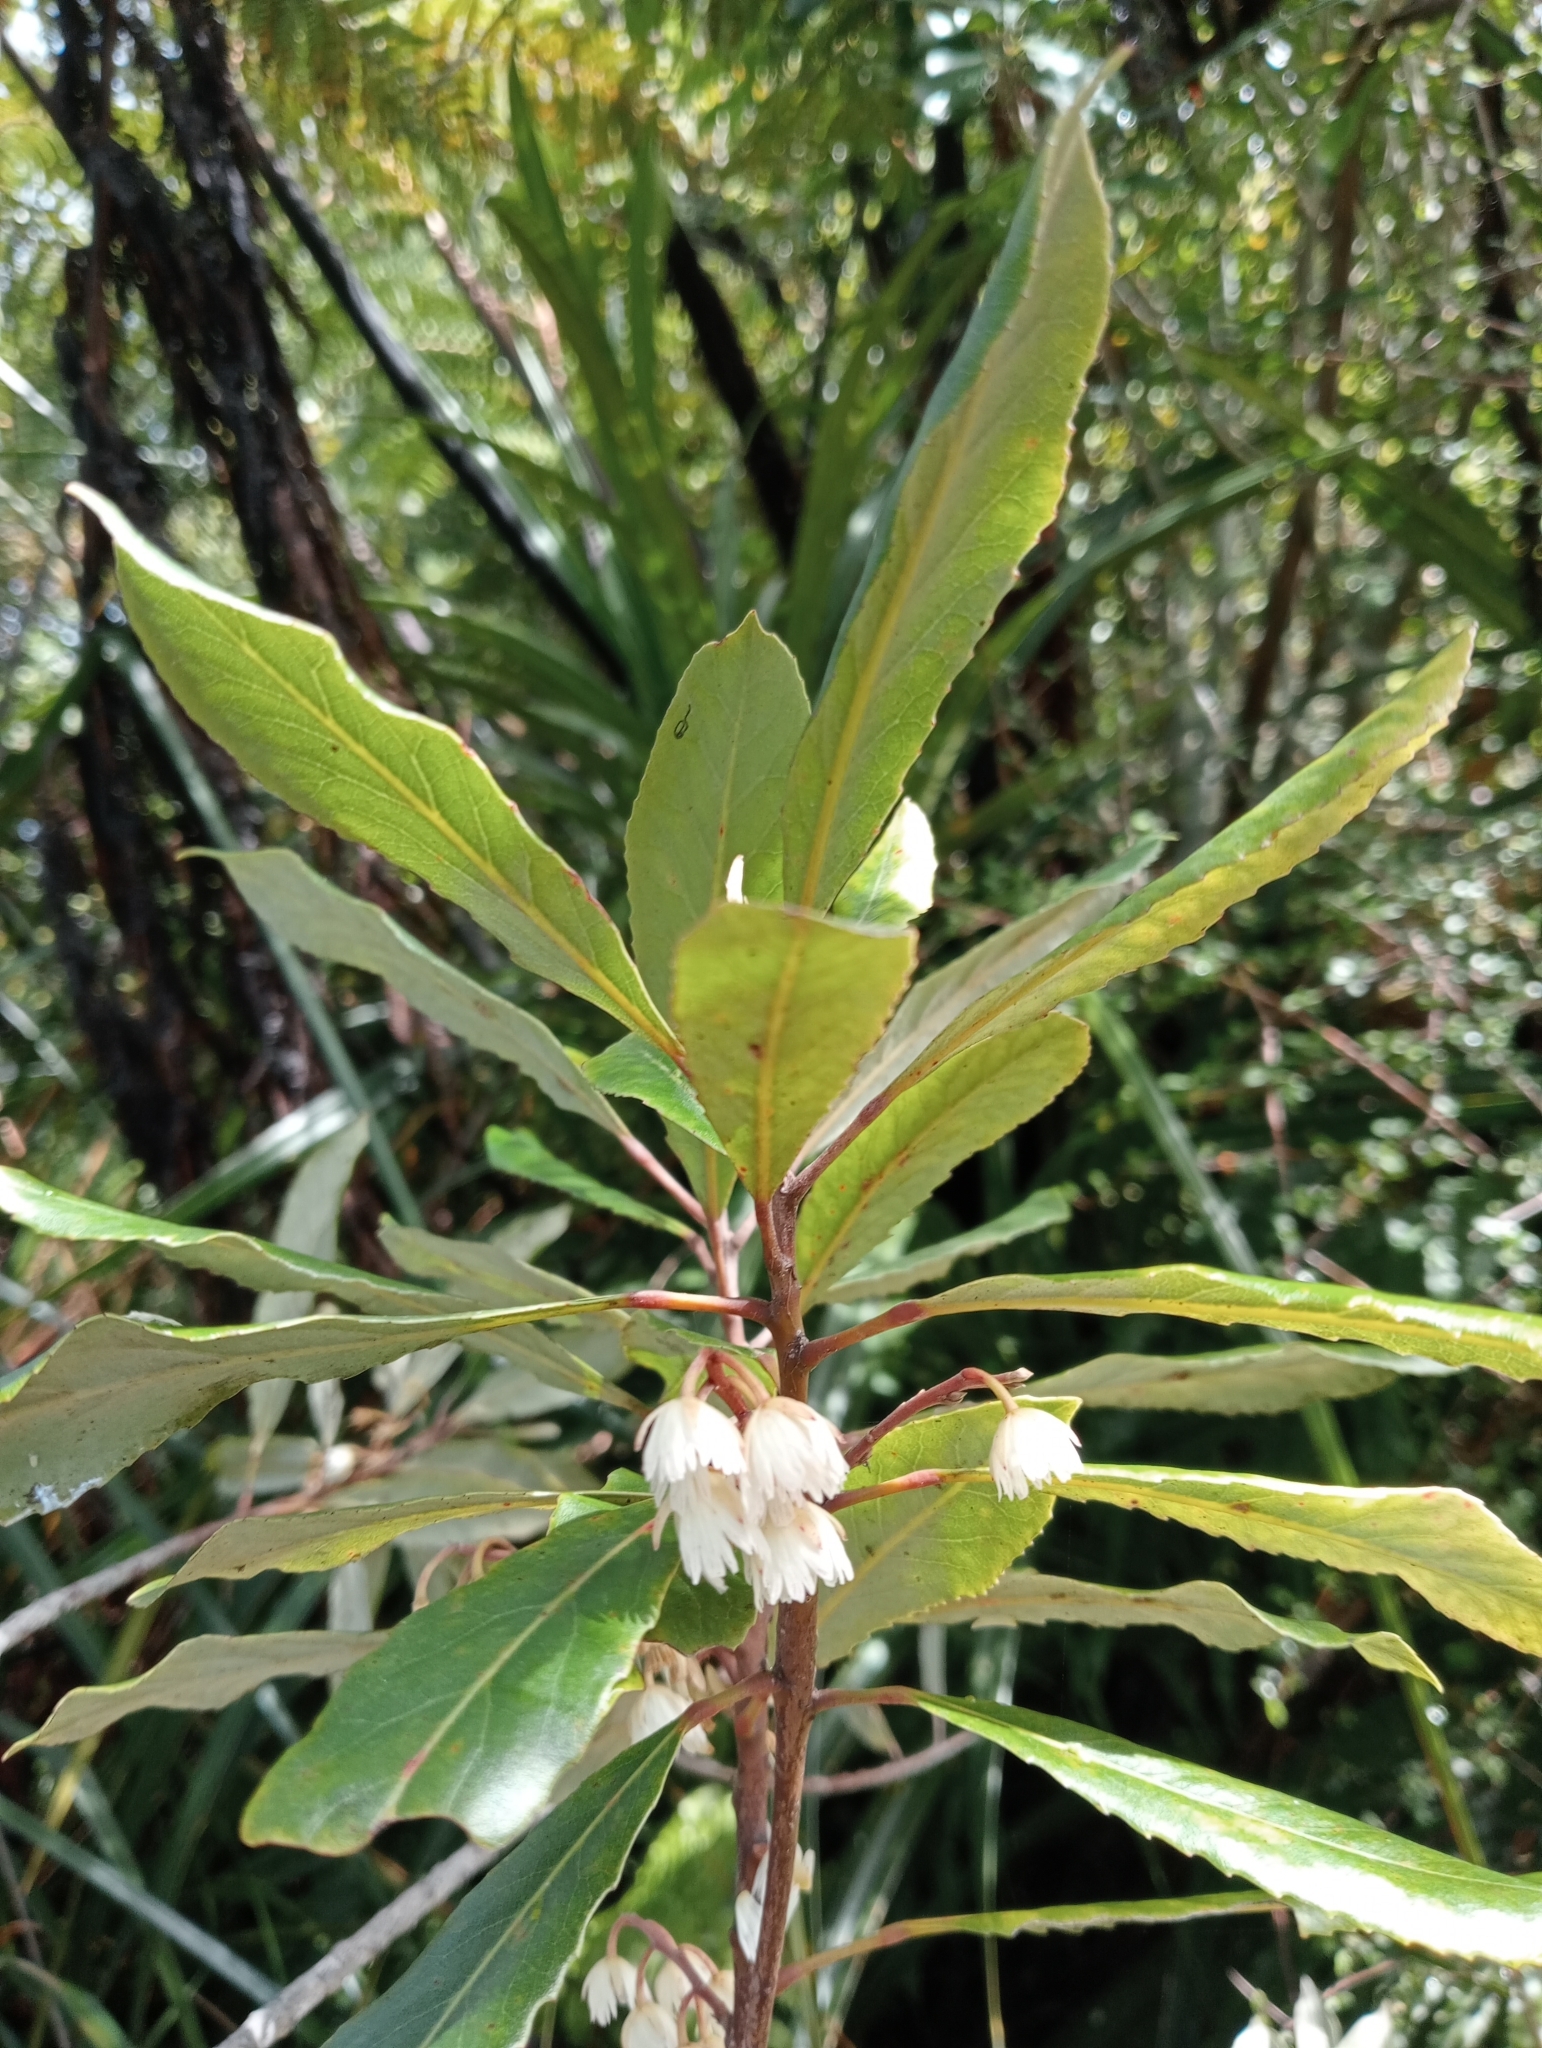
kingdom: Plantae
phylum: Tracheophyta
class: Magnoliopsida
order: Oxalidales
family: Elaeocarpaceae
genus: Elaeocarpus
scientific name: Elaeocarpus dentatus
